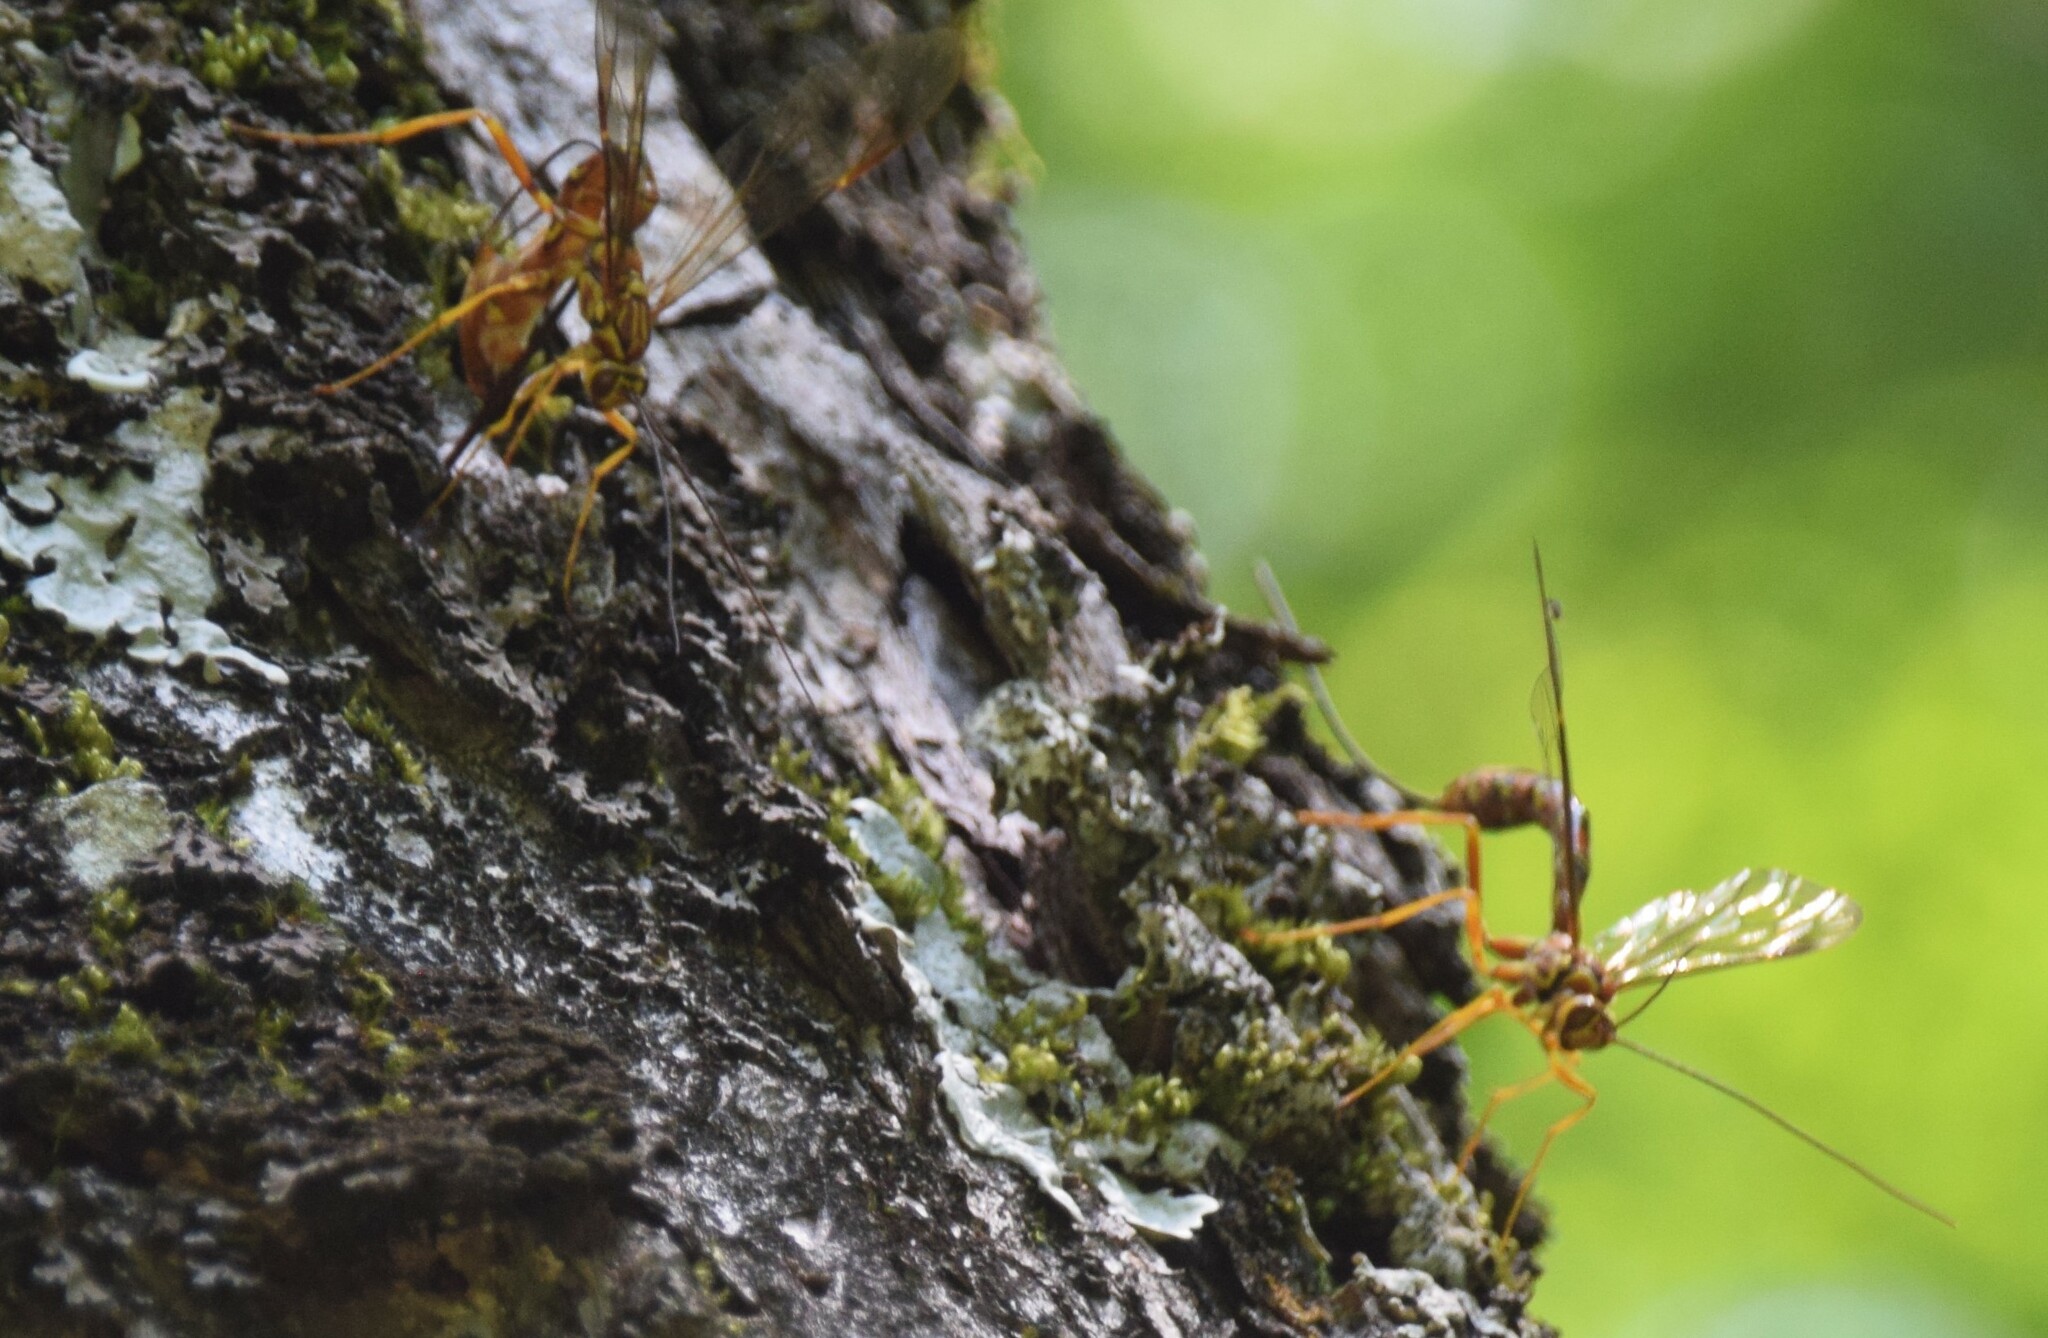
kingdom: Animalia
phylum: Arthropoda
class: Insecta
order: Hymenoptera
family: Ichneumonidae
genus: Megarhyssa
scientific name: Megarhyssa greenei
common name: Greene's giant ichneumonid wasp
